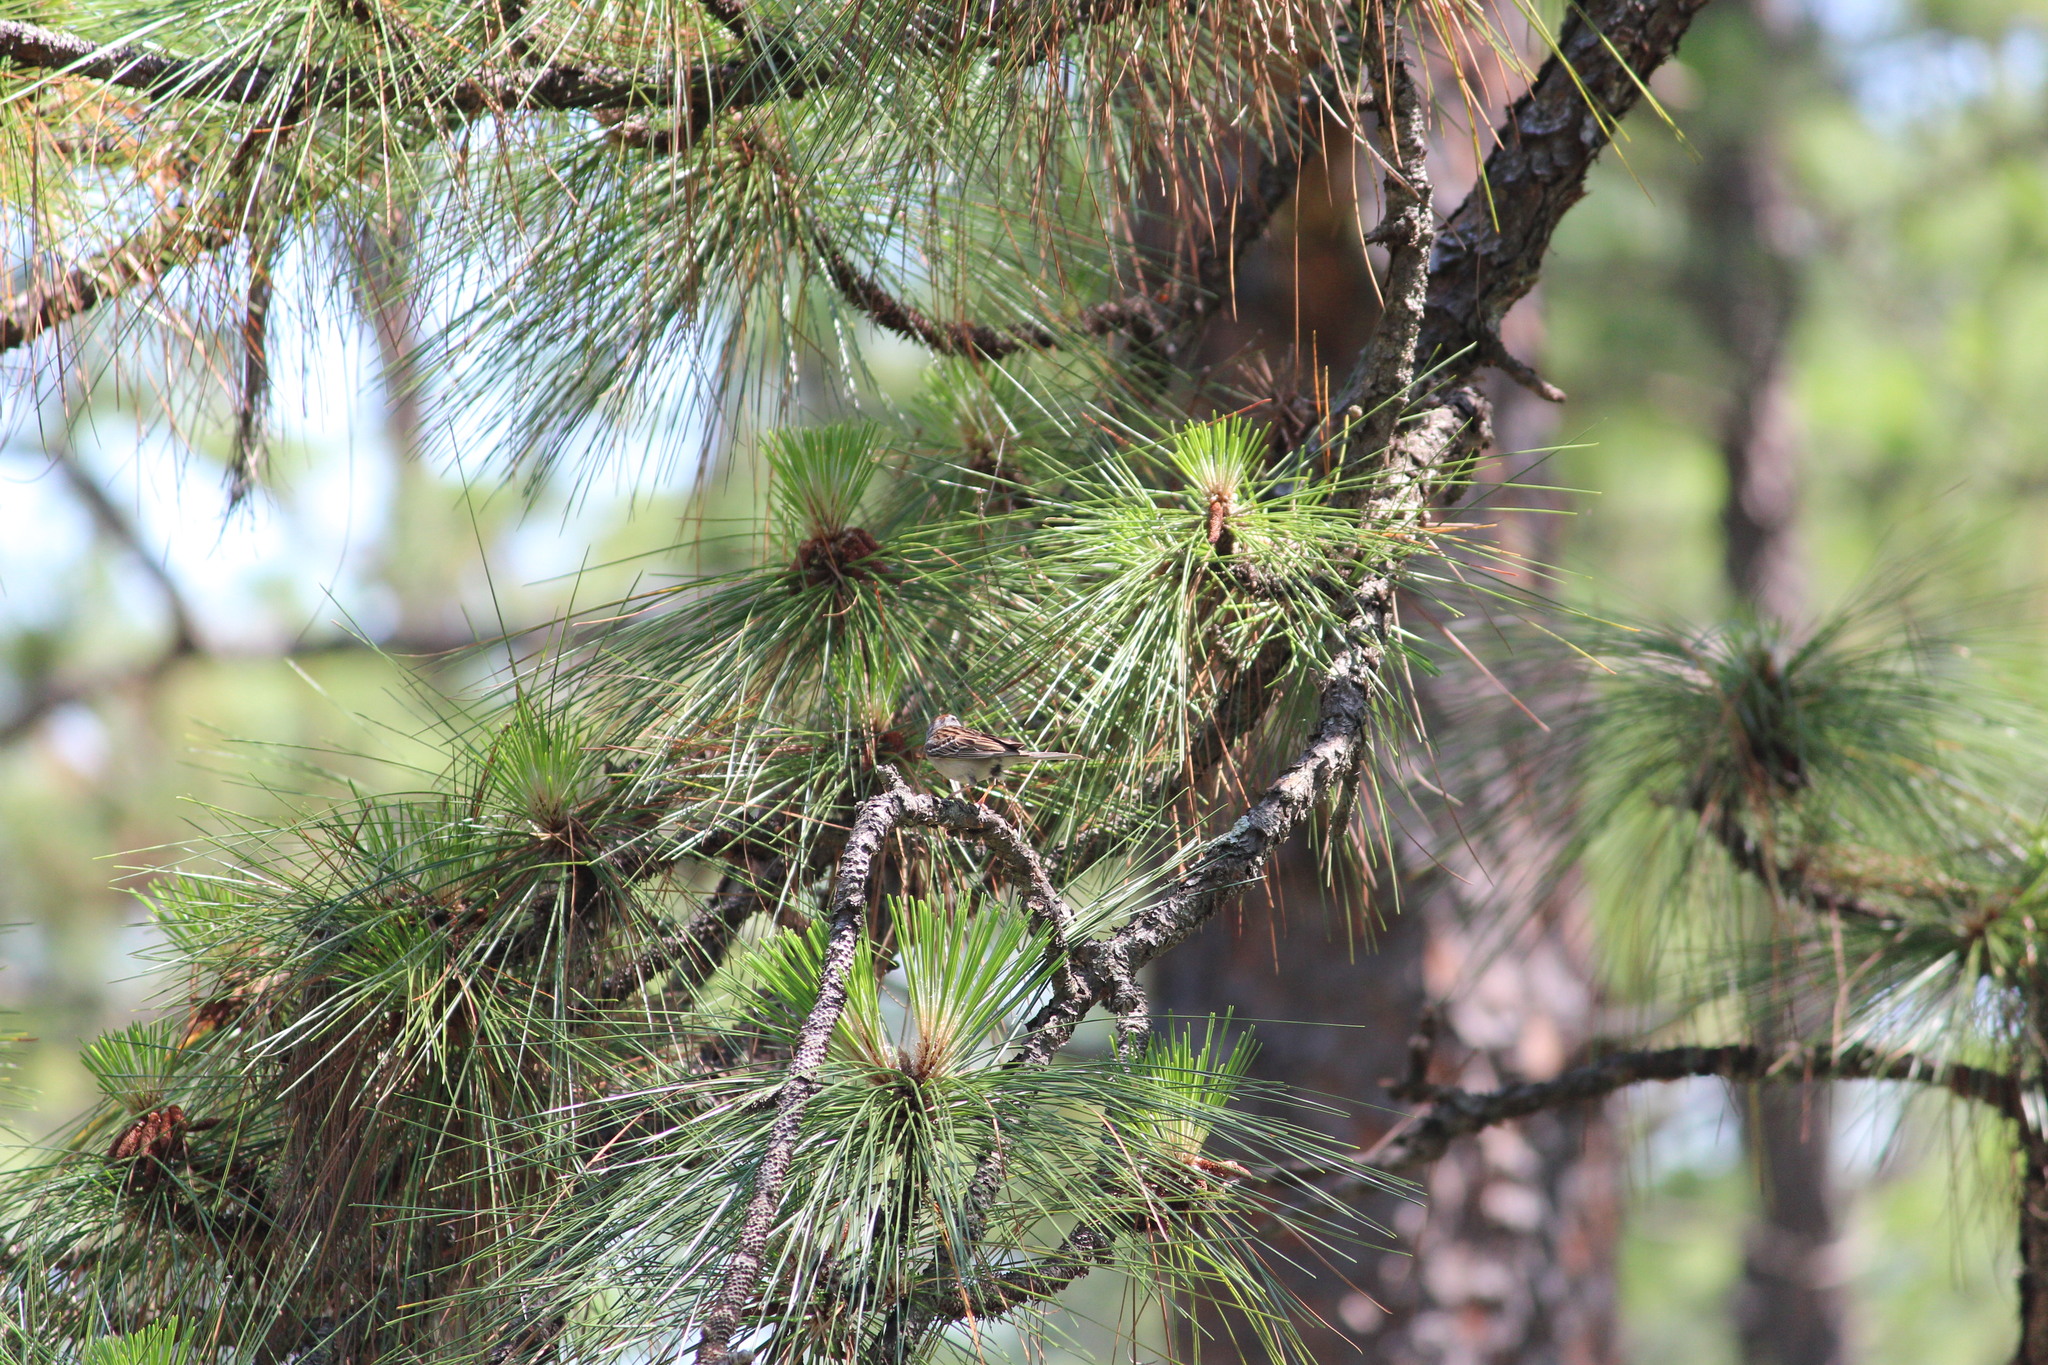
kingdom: Plantae
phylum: Tracheophyta
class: Pinopsida
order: Pinales
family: Pinaceae
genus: Pinus
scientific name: Pinus palustris
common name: Longleaf pine
